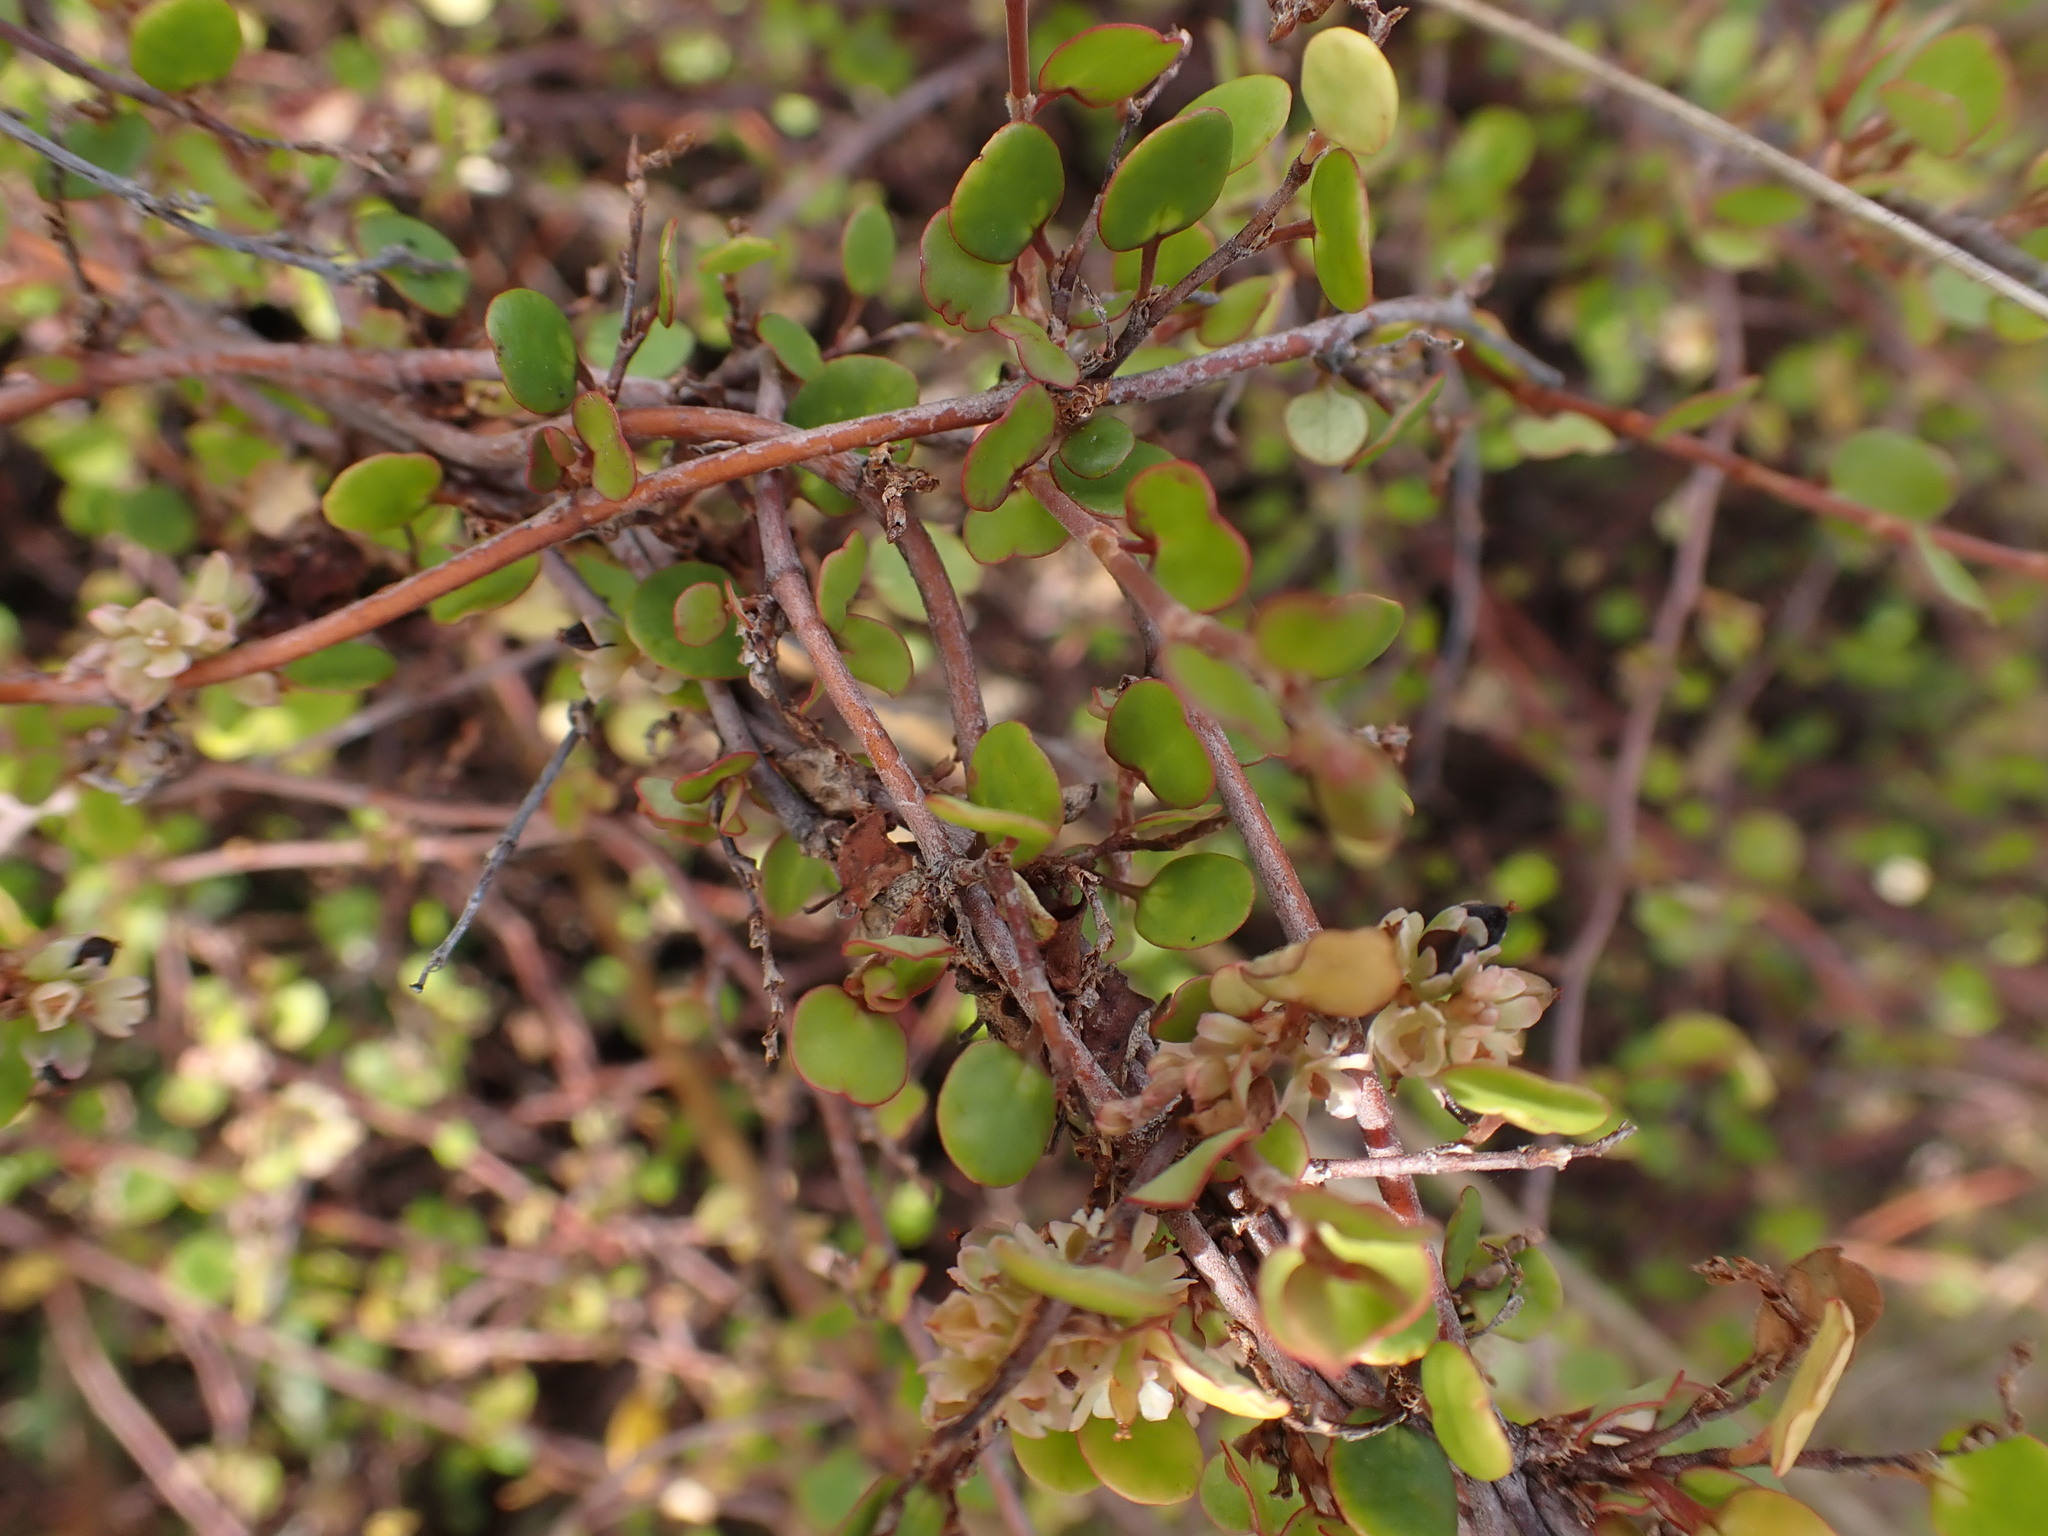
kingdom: Plantae
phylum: Tracheophyta
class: Magnoliopsida
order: Caryophyllales
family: Polygonaceae
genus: Muehlenbeckia
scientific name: Muehlenbeckia complexa
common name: Wireplant
